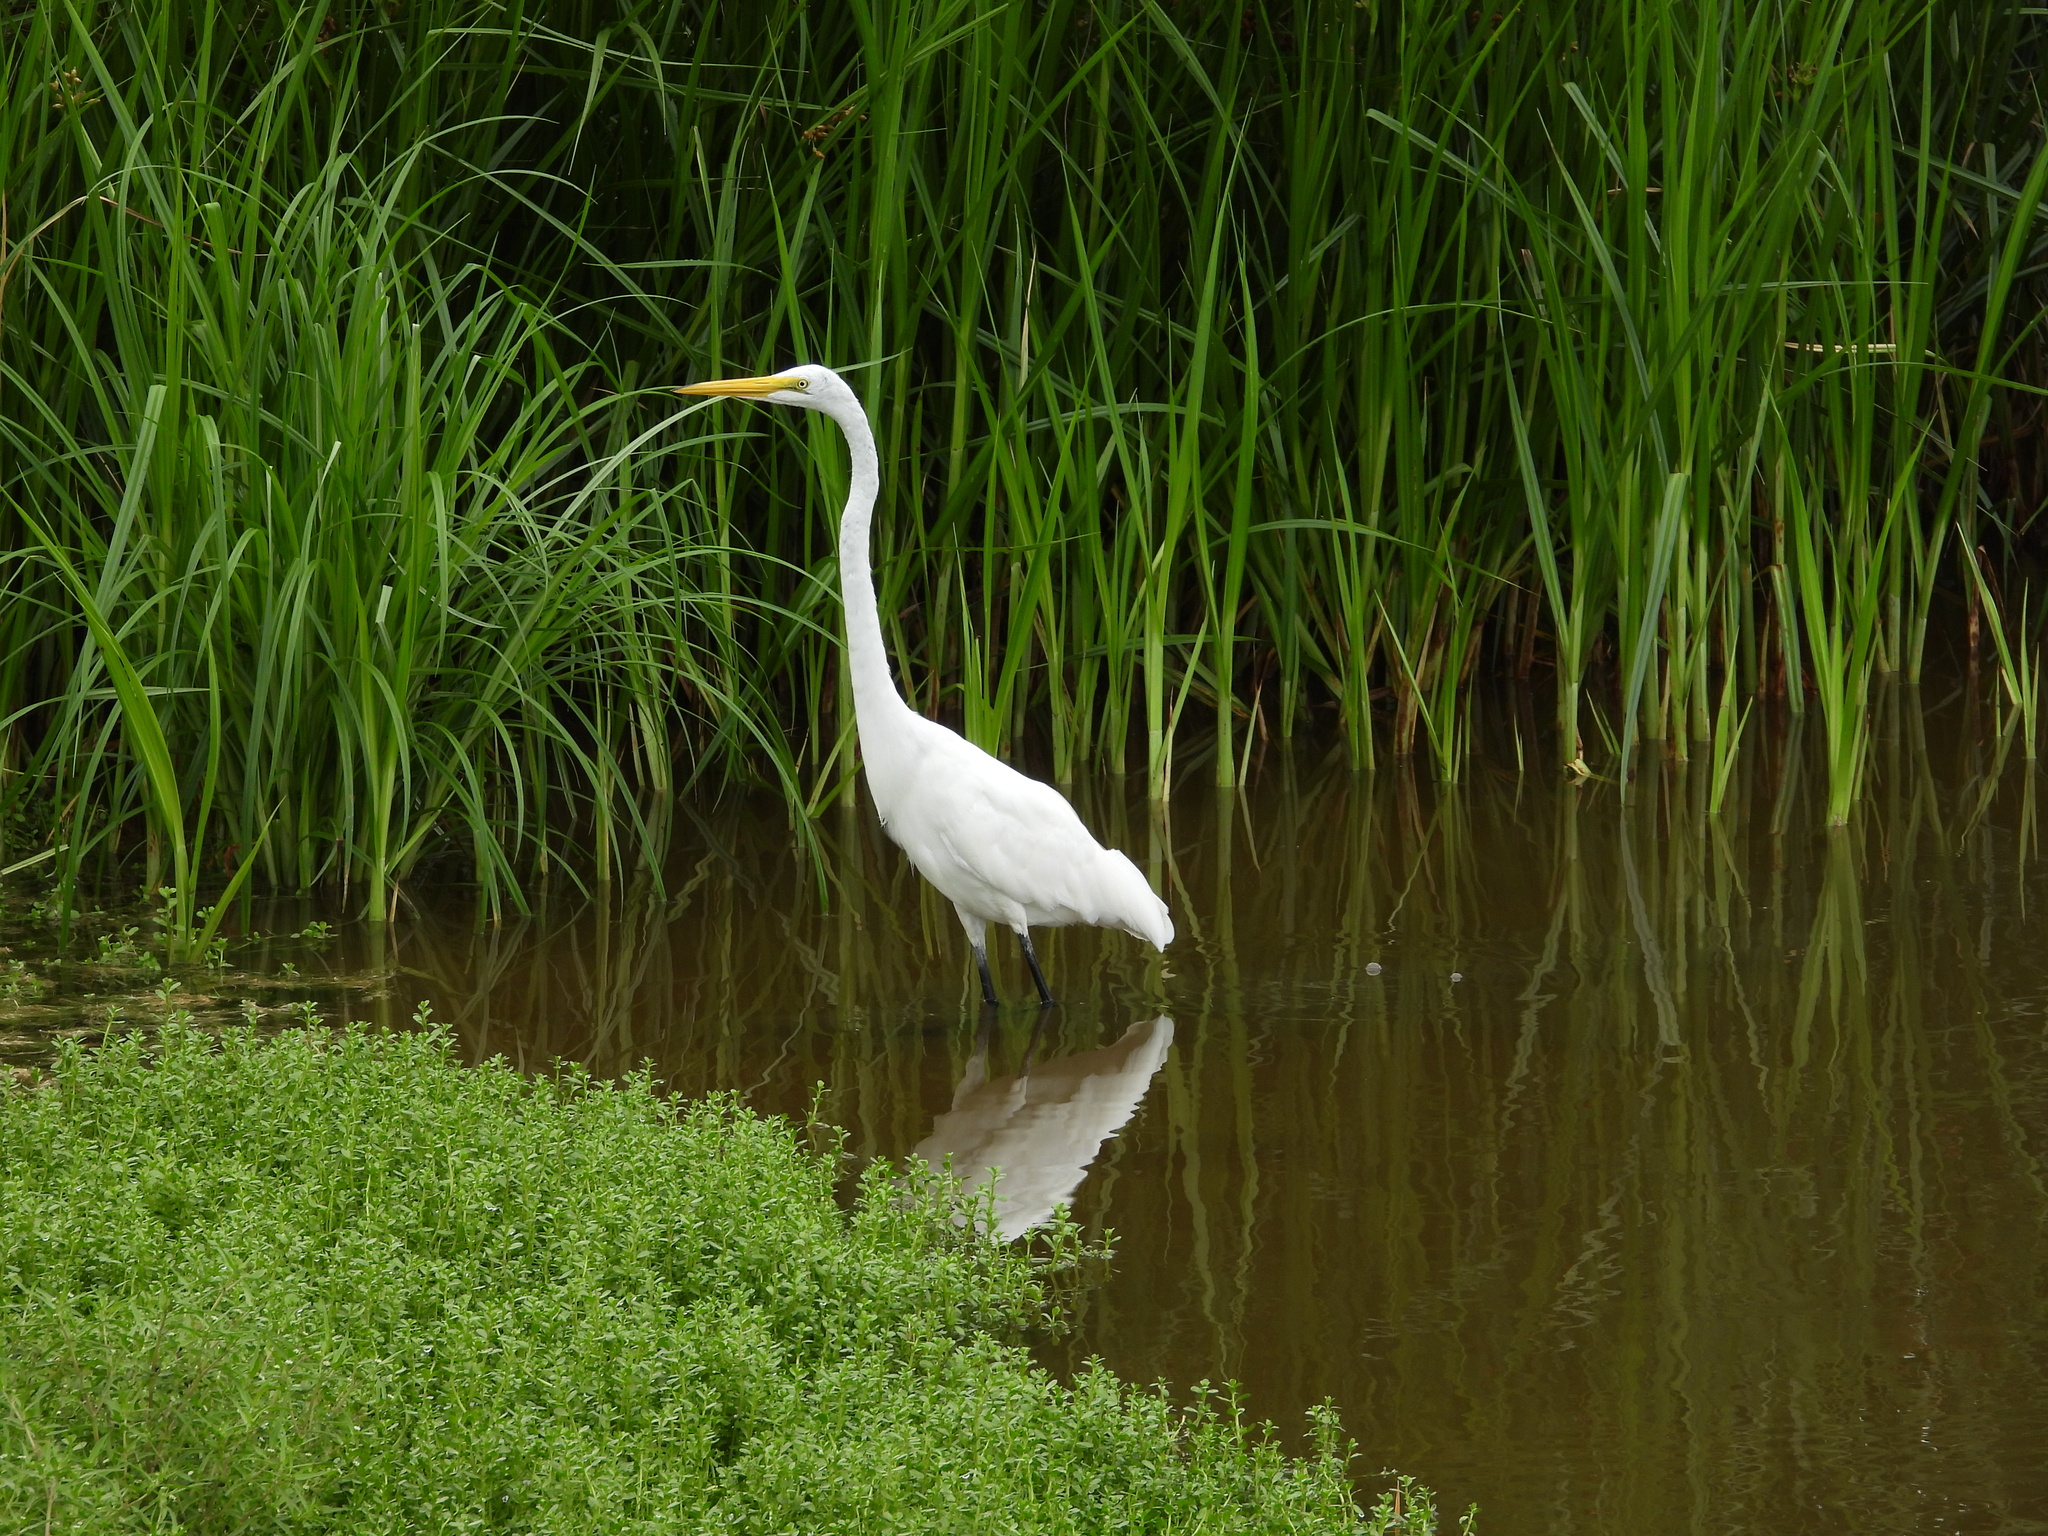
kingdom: Animalia
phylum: Chordata
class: Aves
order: Pelecaniformes
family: Ardeidae
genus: Ardea
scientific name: Ardea alba
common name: Great egret
